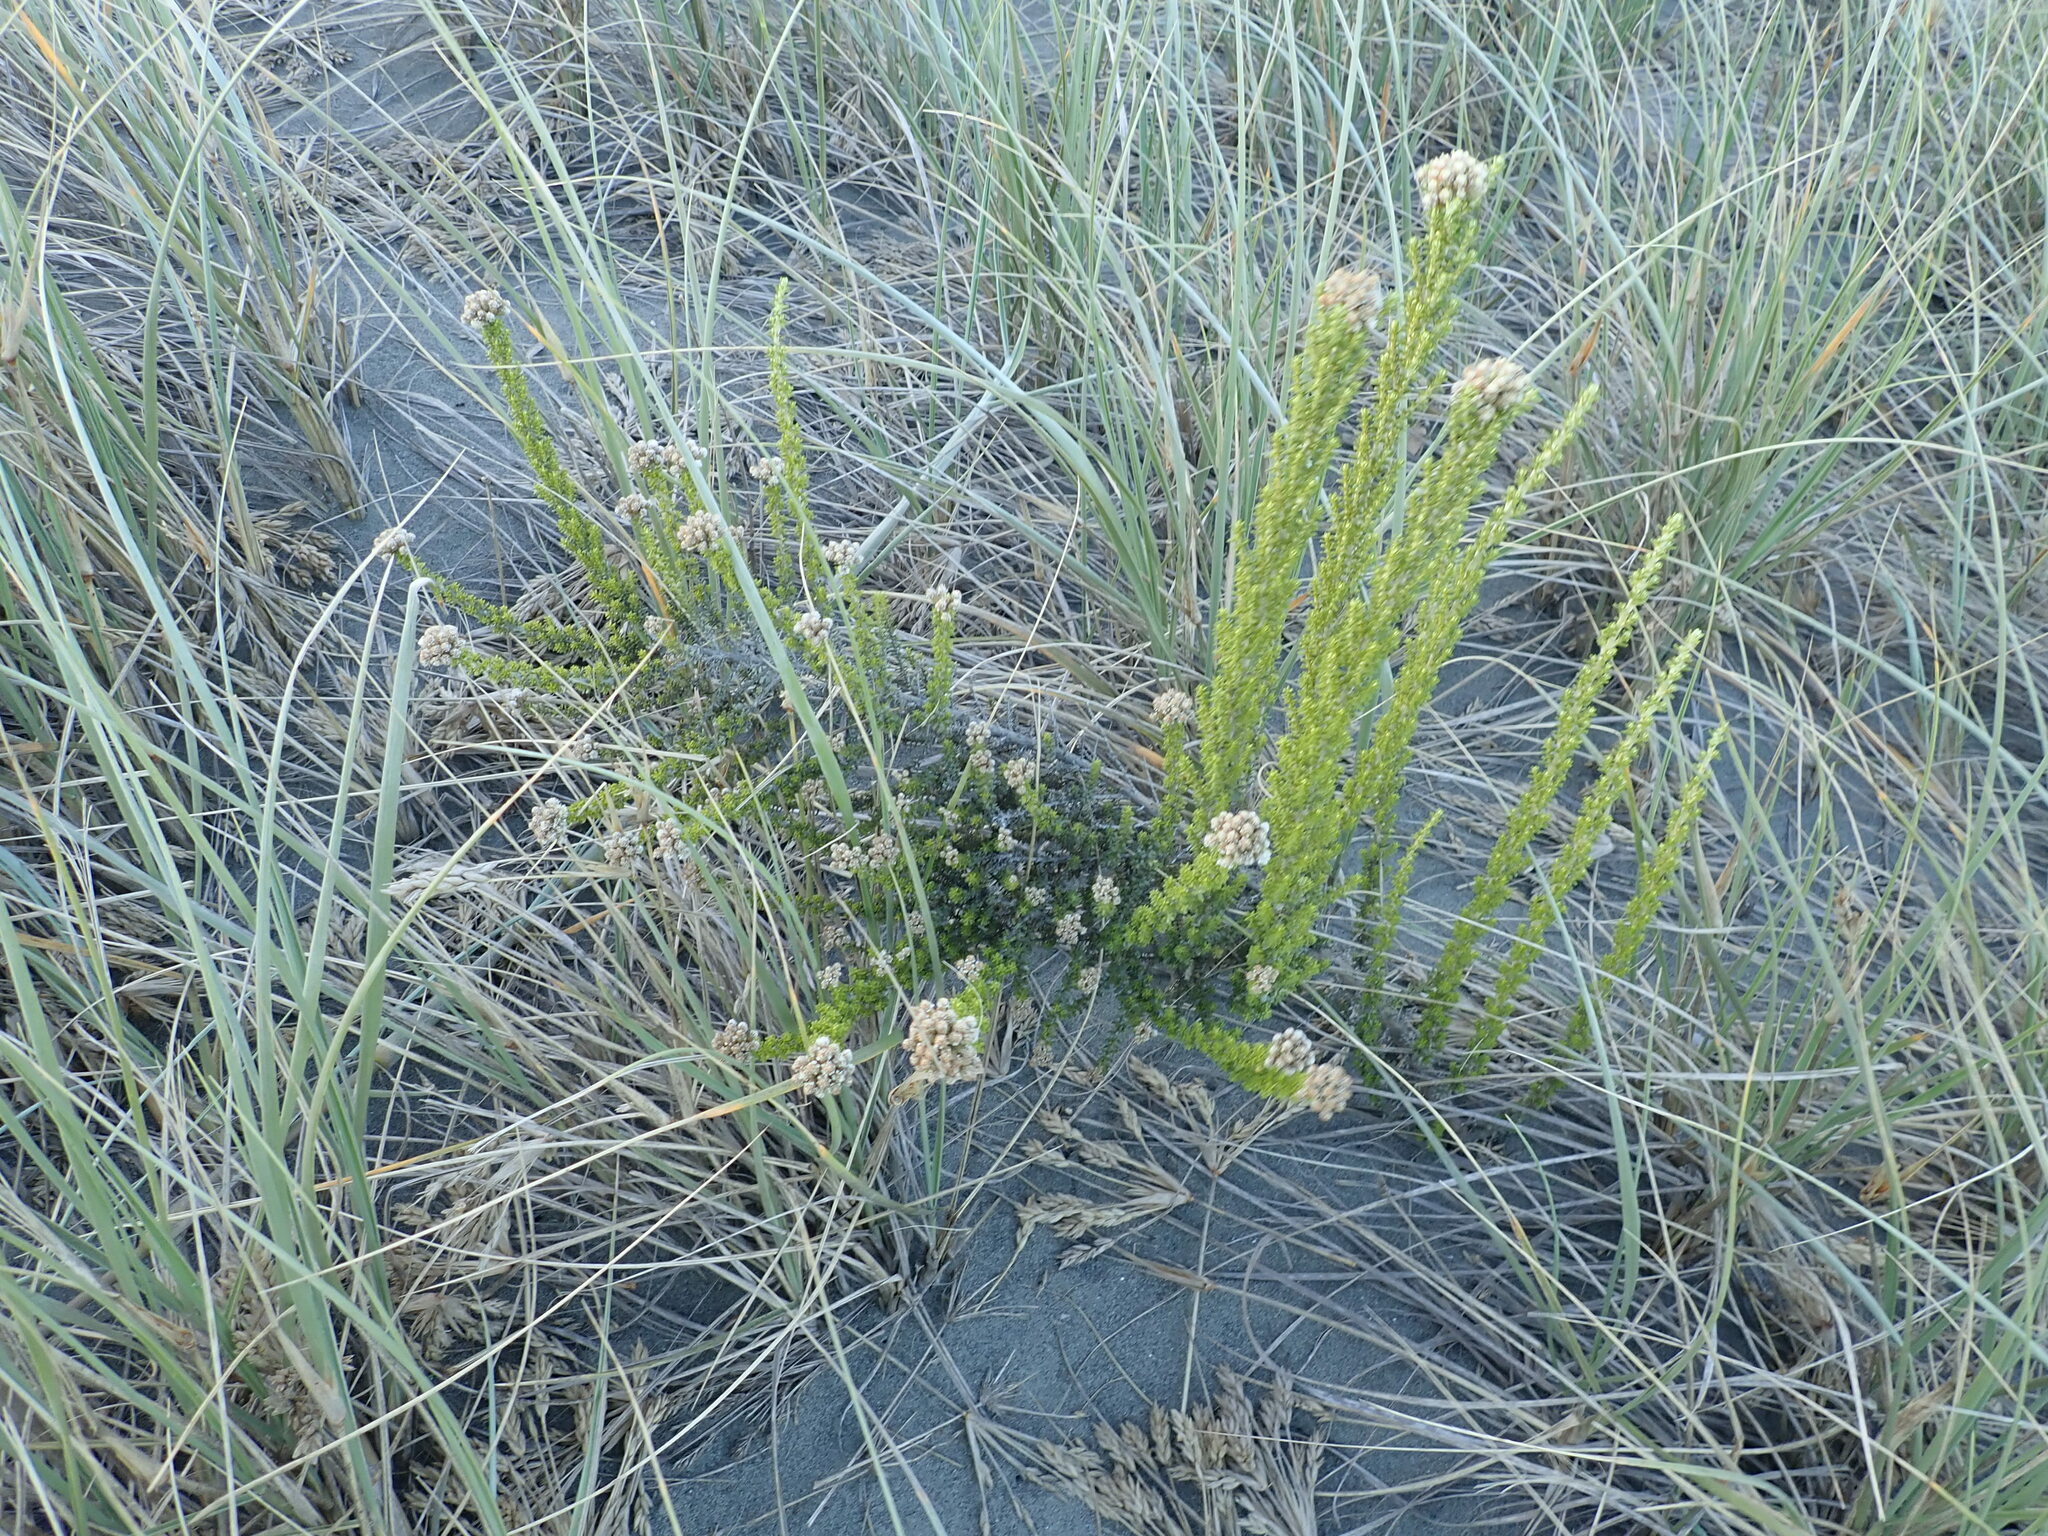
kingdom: Plantae
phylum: Tracheophyta
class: Magnoliopsida
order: Asterales
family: Asteraceae
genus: Ozothamnus
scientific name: Ozothamnus leptophyllus
